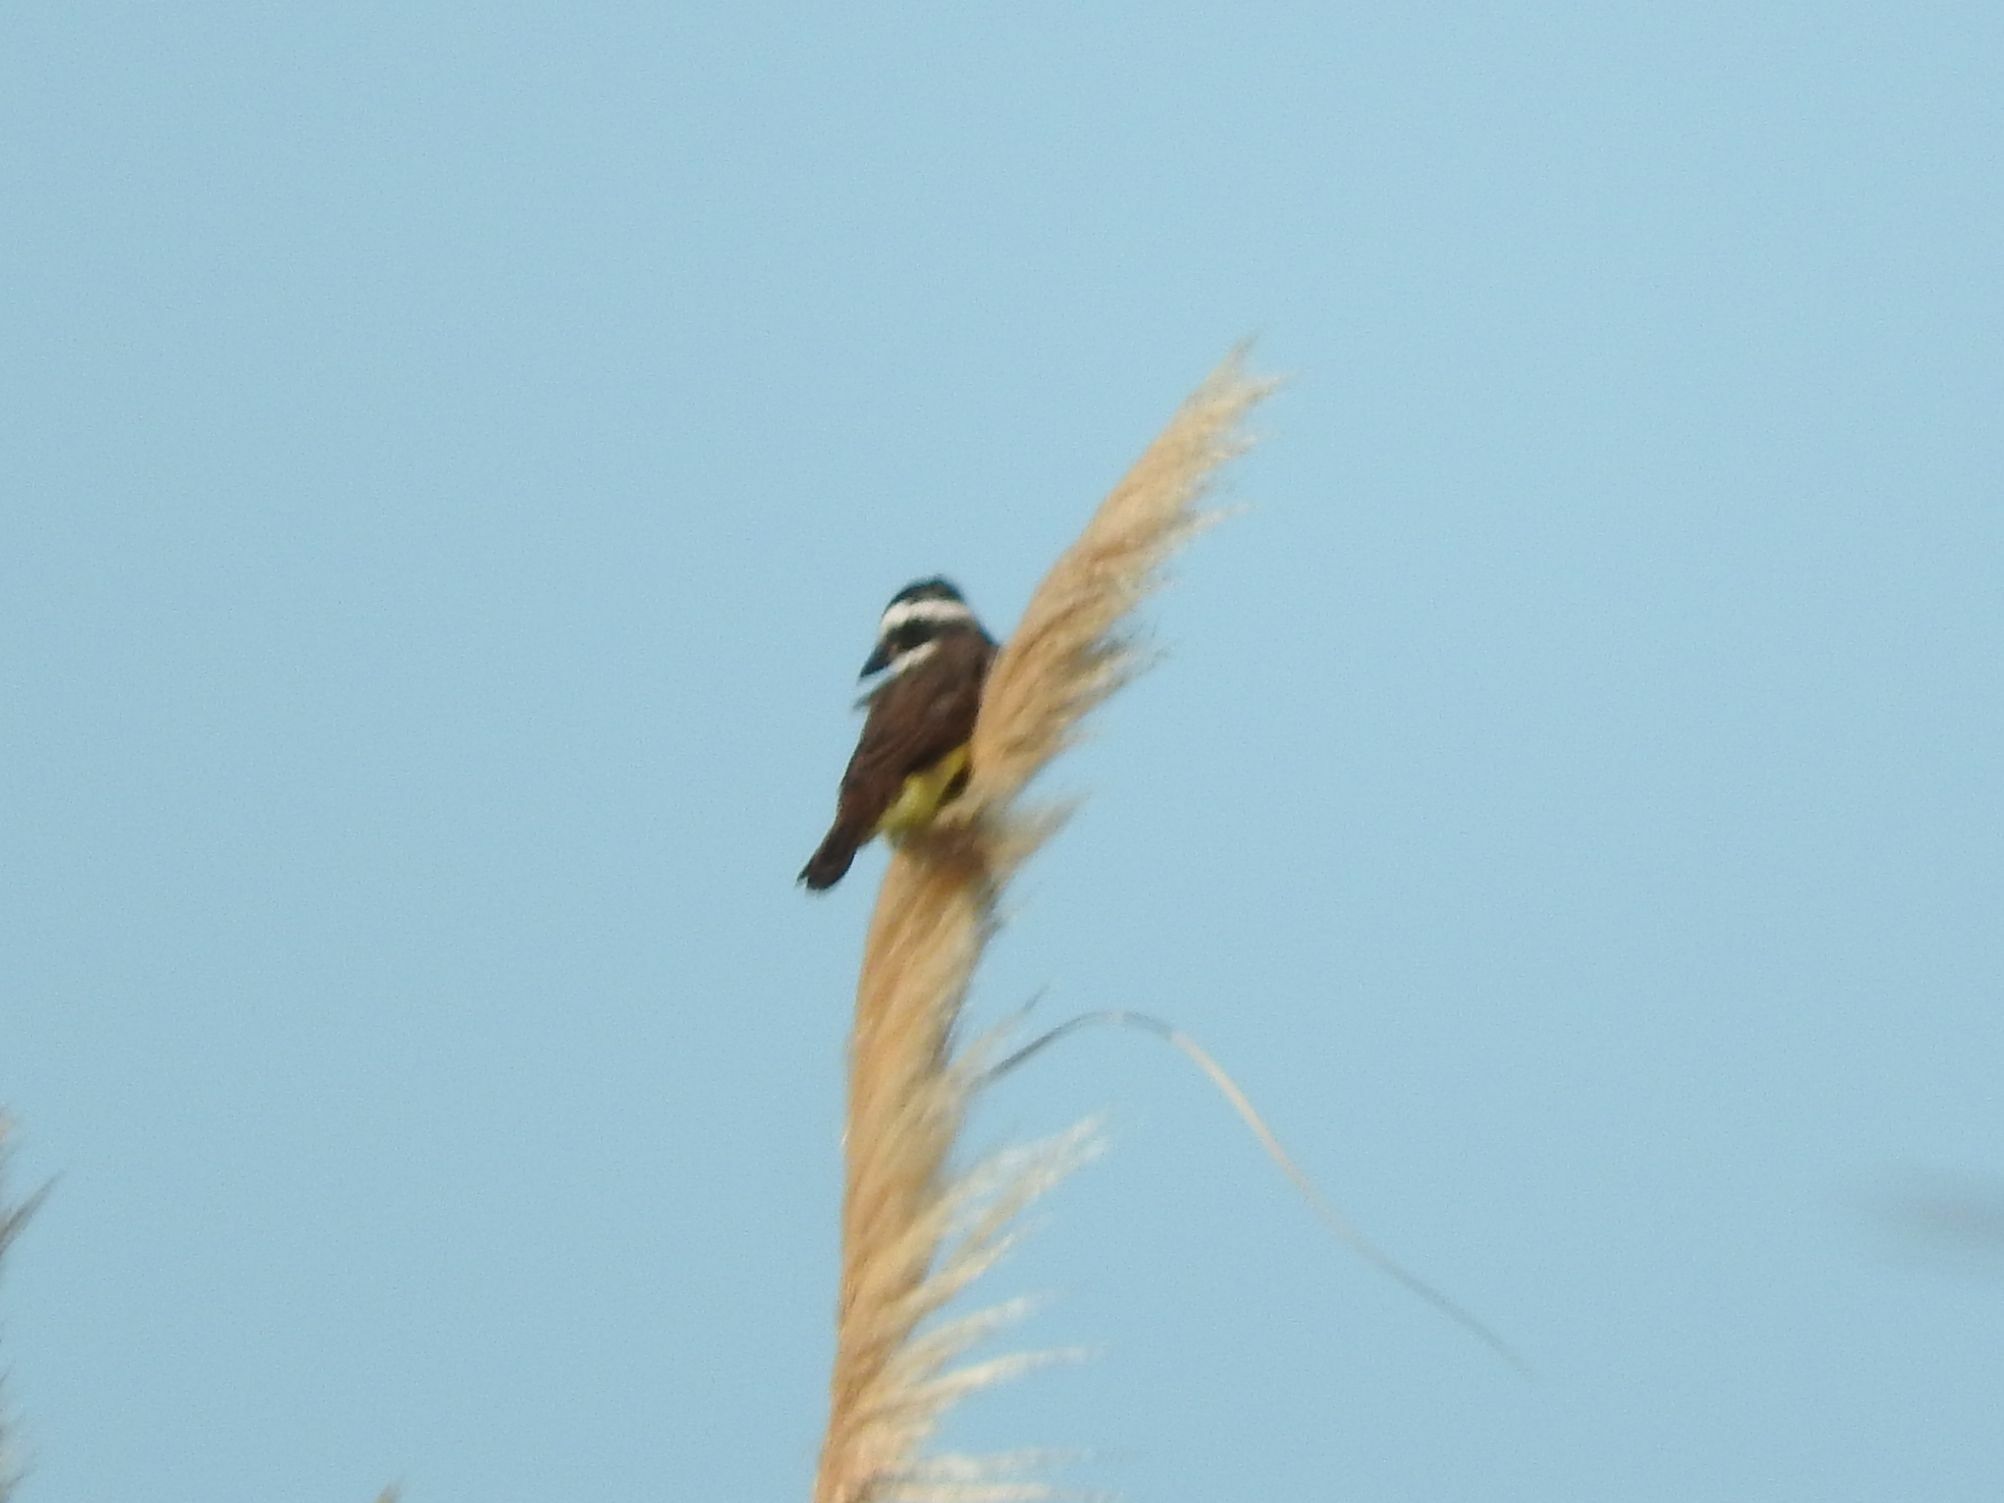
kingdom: Animalia
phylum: Chordata
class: Aves
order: Passeriformes
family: Tyrannidae
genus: Pitangus
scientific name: Pitangus sulphuratus
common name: Great kiskadee
